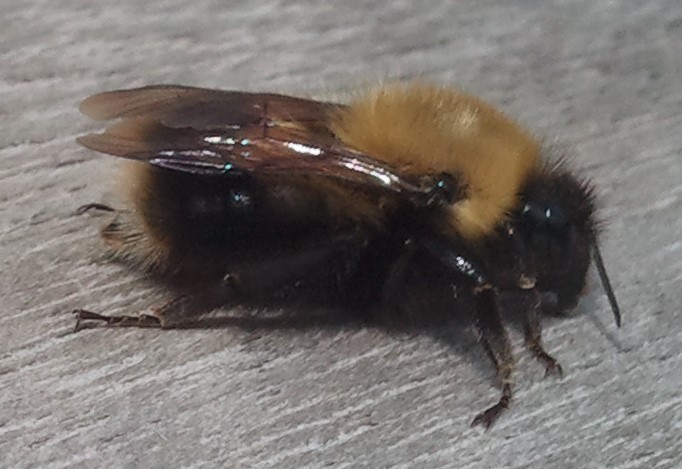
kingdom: Animalia
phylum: Arthropoda
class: Insecta
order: Hymenoptera
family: Apidae
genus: Bombus
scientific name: Bombus perplexus
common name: Confusing bumble bee
